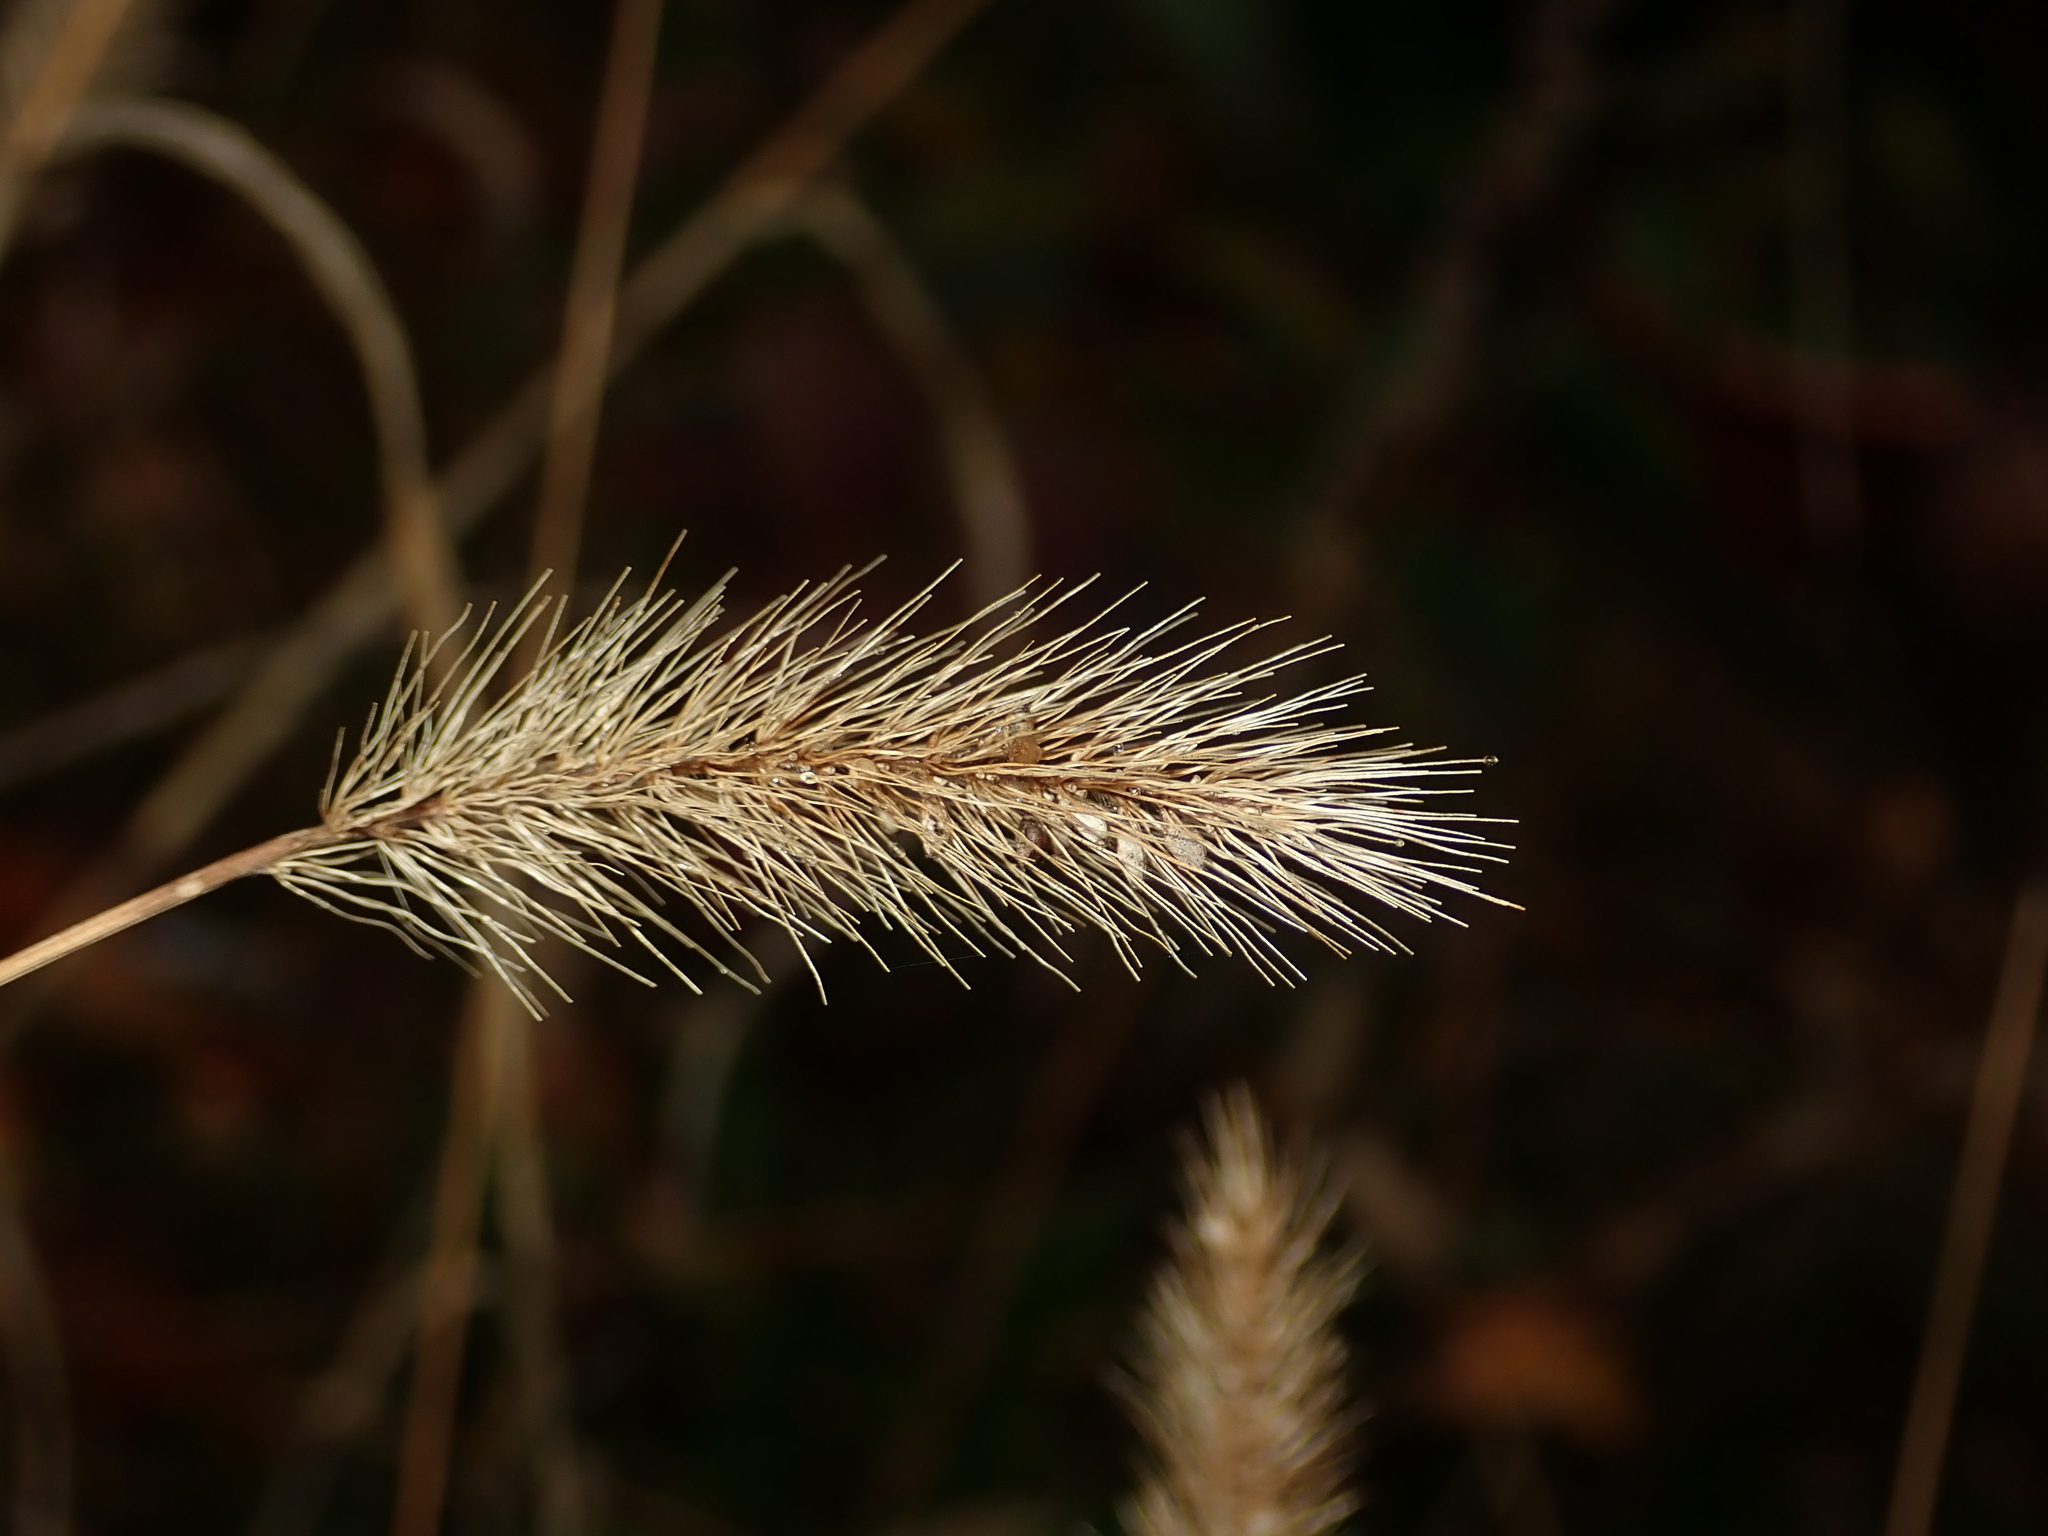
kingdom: Plantae
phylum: Tracheophyta
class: Liliopsida
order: Poales
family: Poaceae
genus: Setaria
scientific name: Setaria viridis
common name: Green bristlegrass
